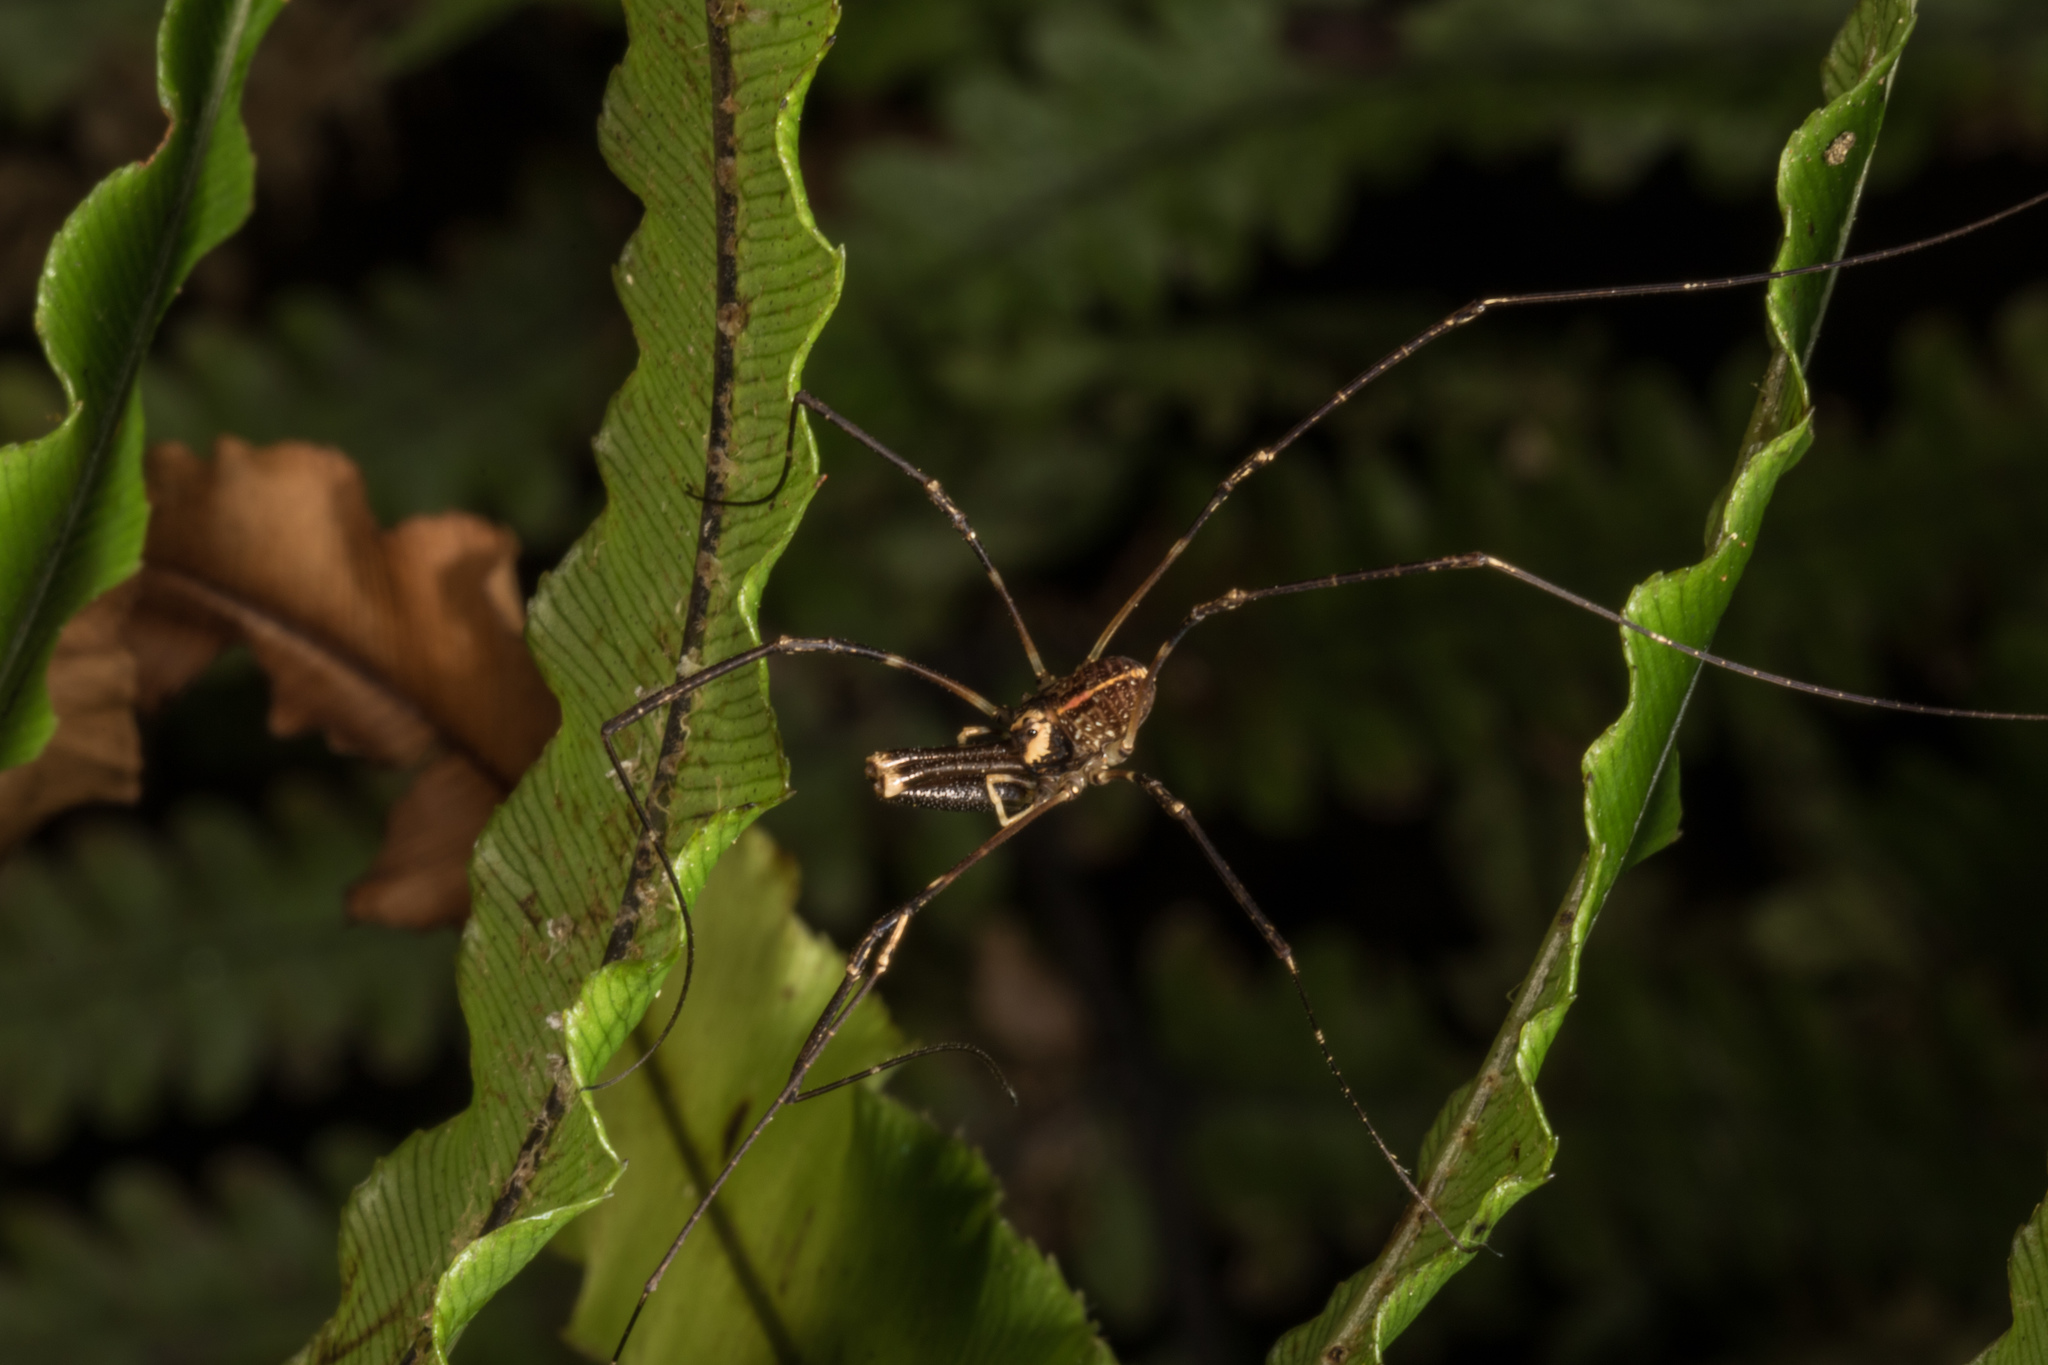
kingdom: Animalia
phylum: Arthropoda
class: Arachnida
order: Opiliones
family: Neopilionidae
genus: Forsteropsalis
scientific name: Forsteropsalis pureora
